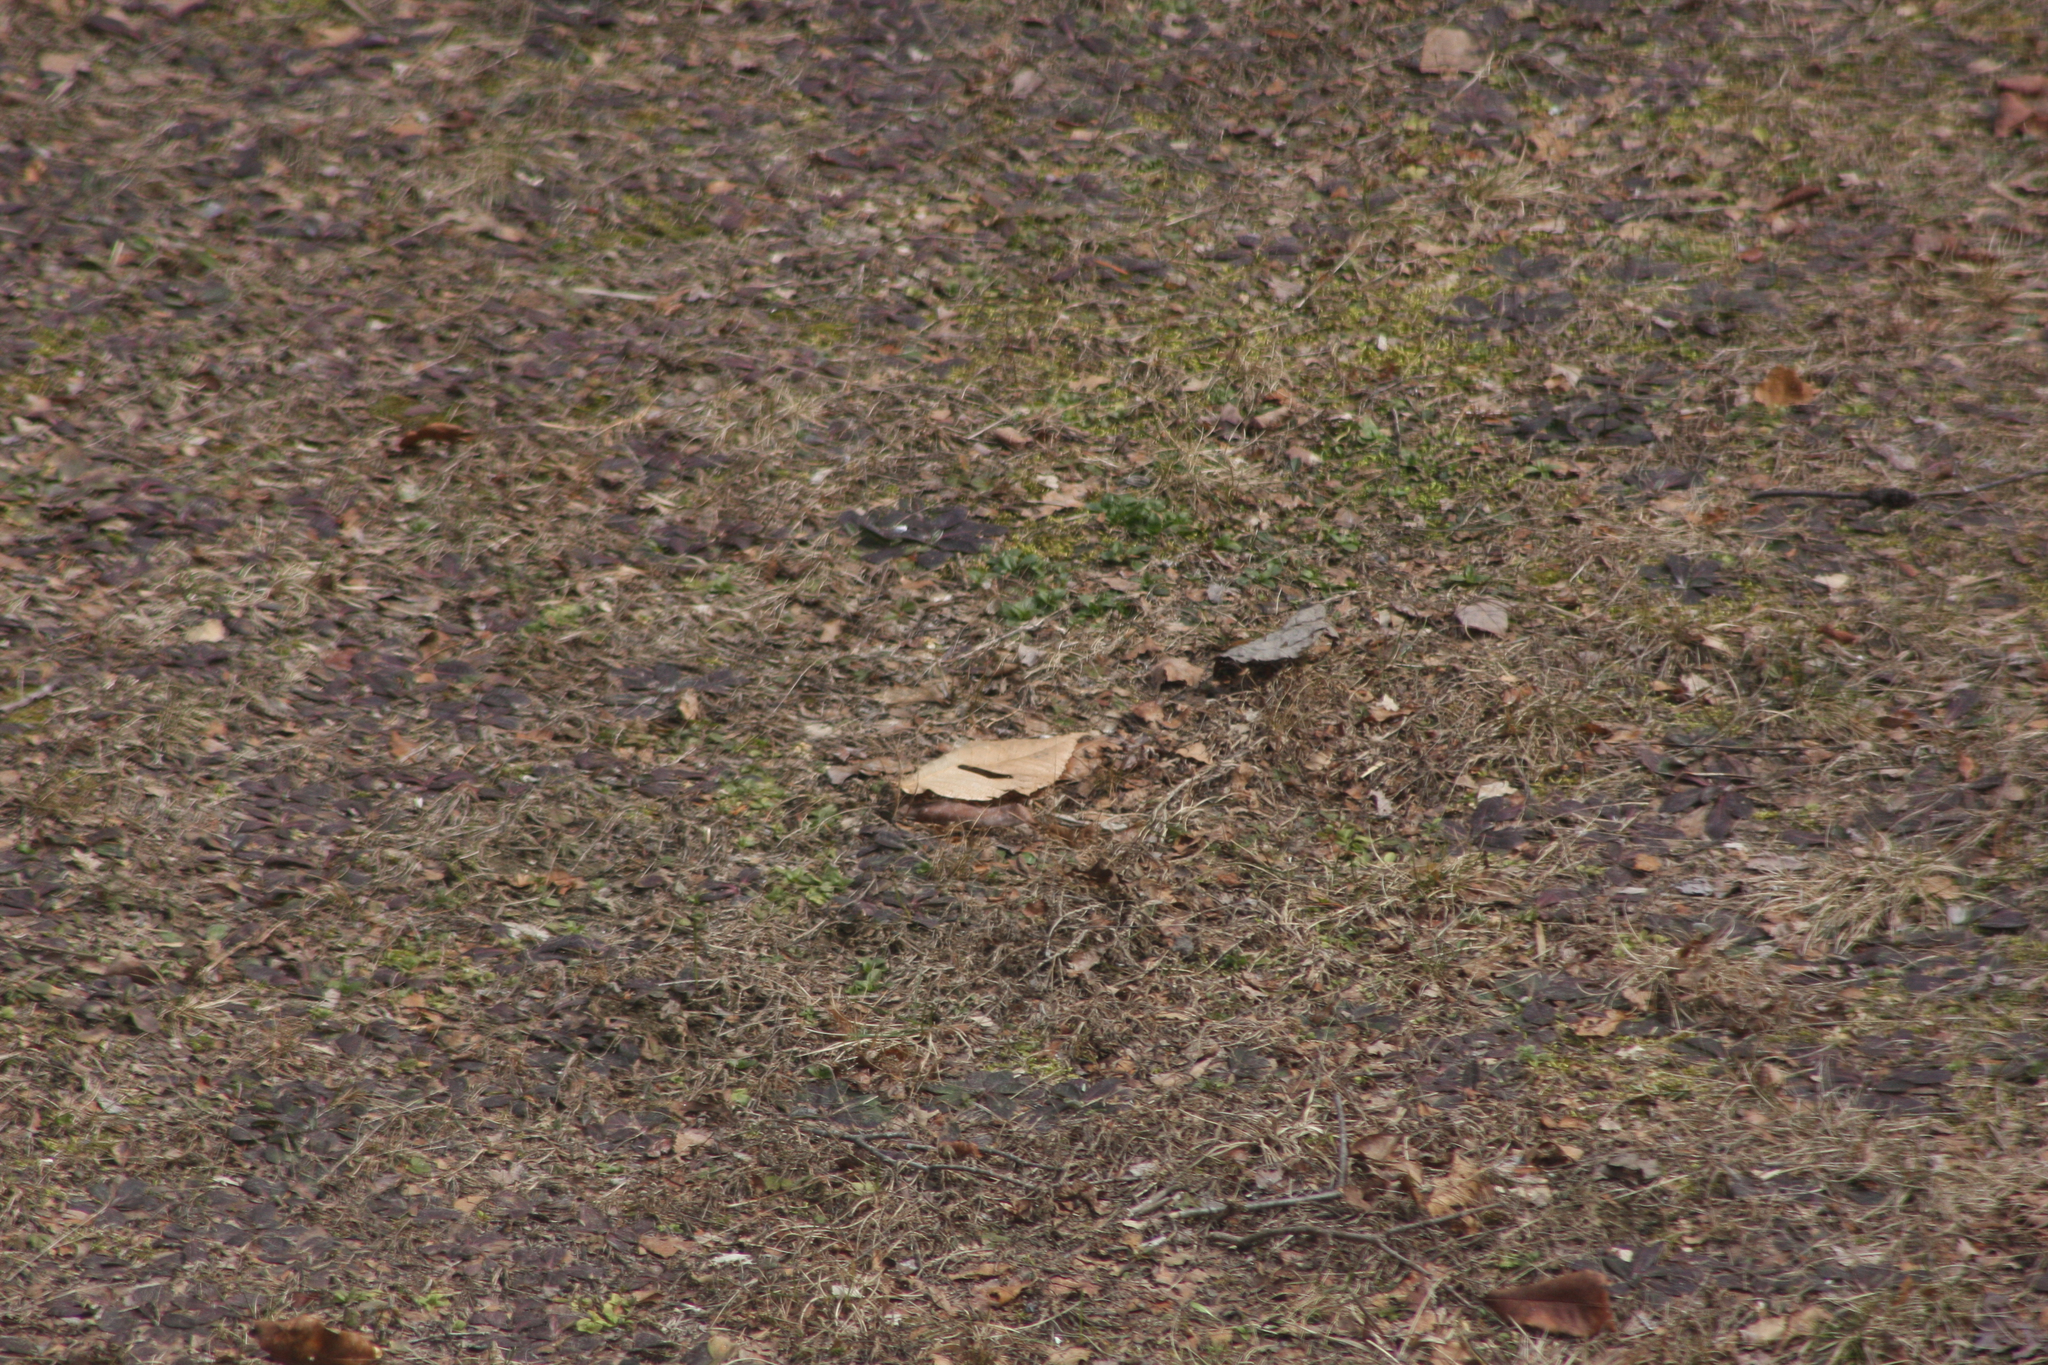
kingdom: Plantae
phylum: Tracheophyta
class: Magnoliopsida
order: Fagales
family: Fagaceae
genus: Fagus
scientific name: Fagus grandifolia
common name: American beech
